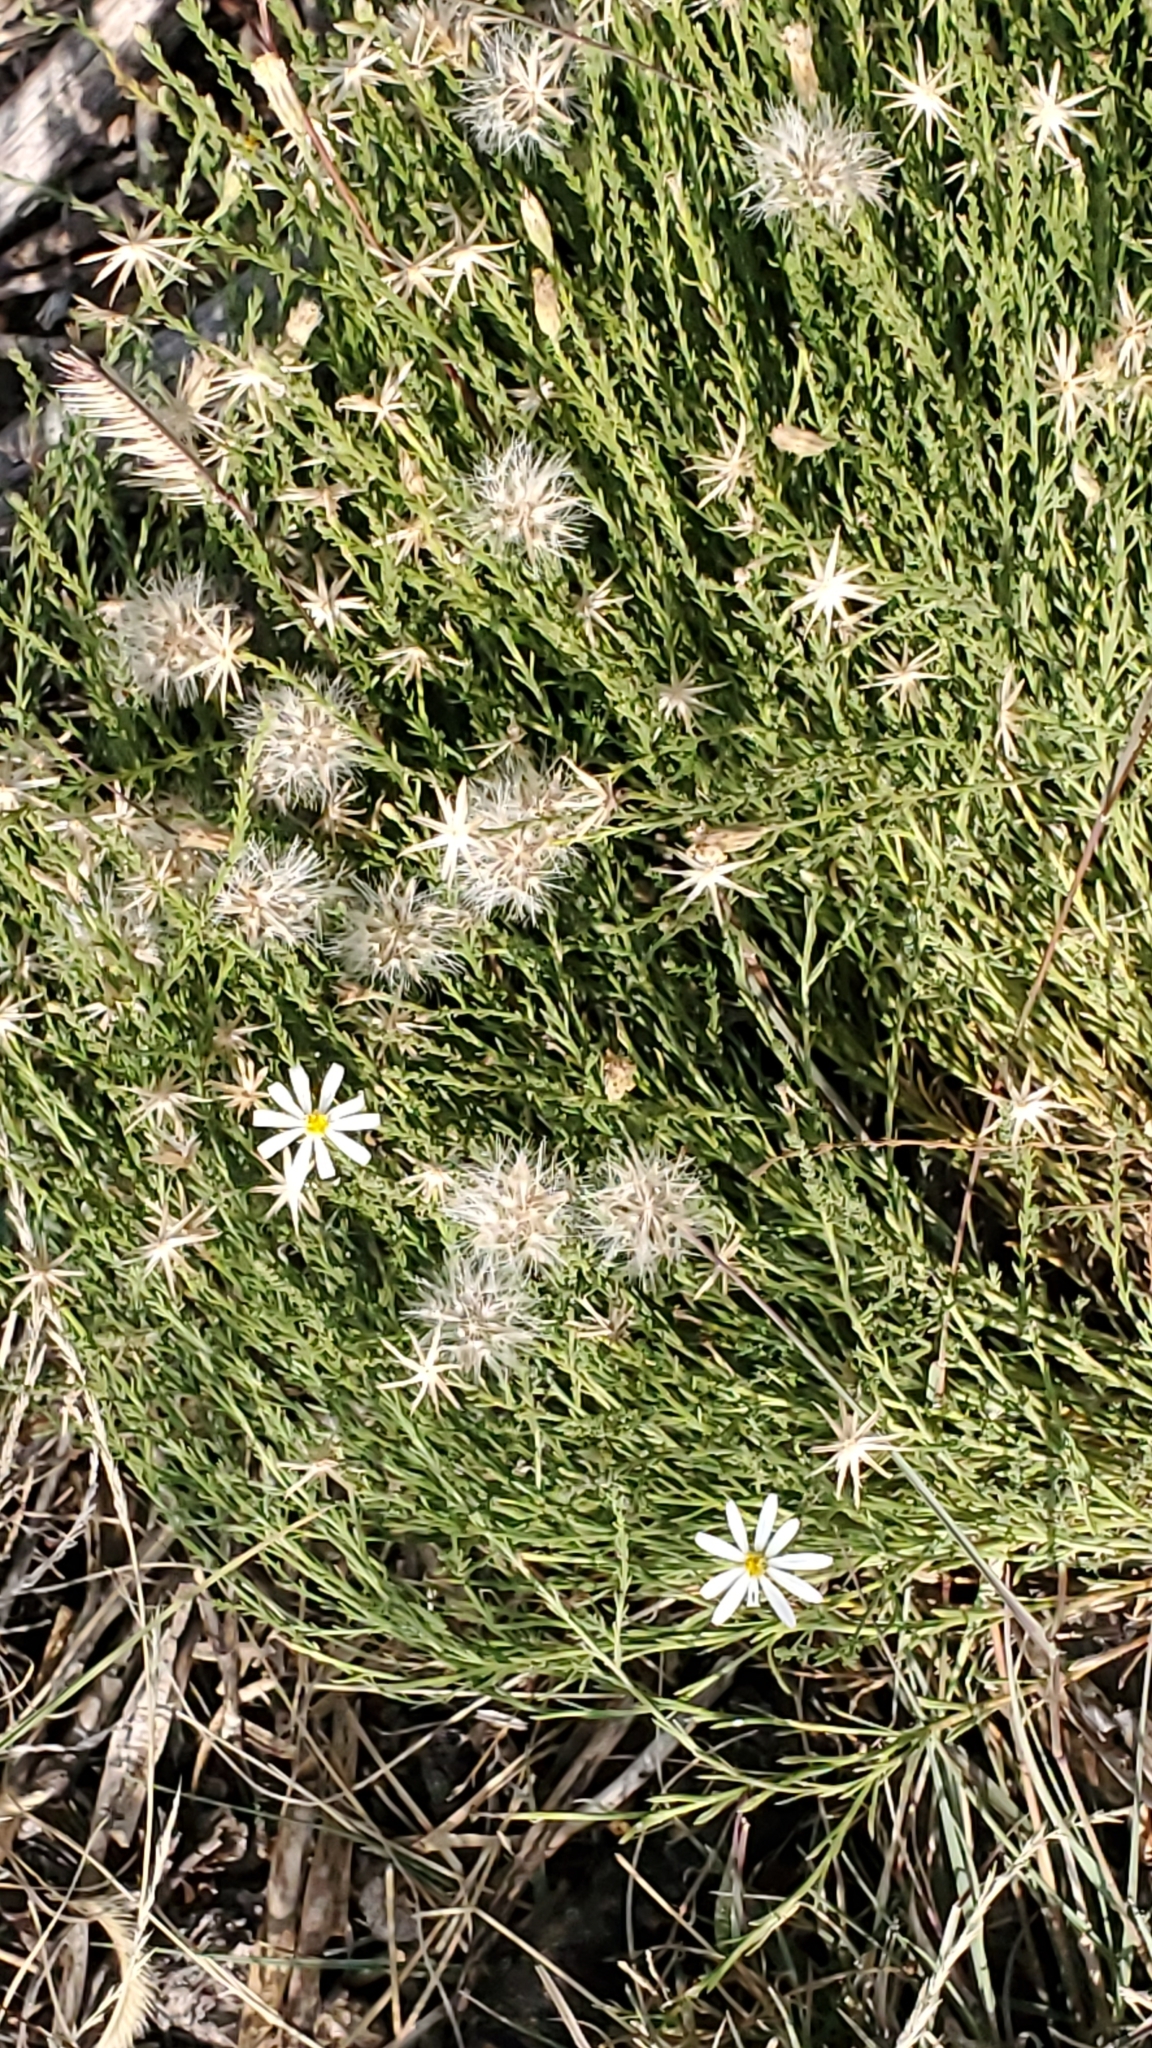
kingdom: Plantae
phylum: Tracheophyta
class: Magnoliopsida
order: Asterales
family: Asteraceae
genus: Chaetopappa
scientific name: Chaetopappa ericoides
